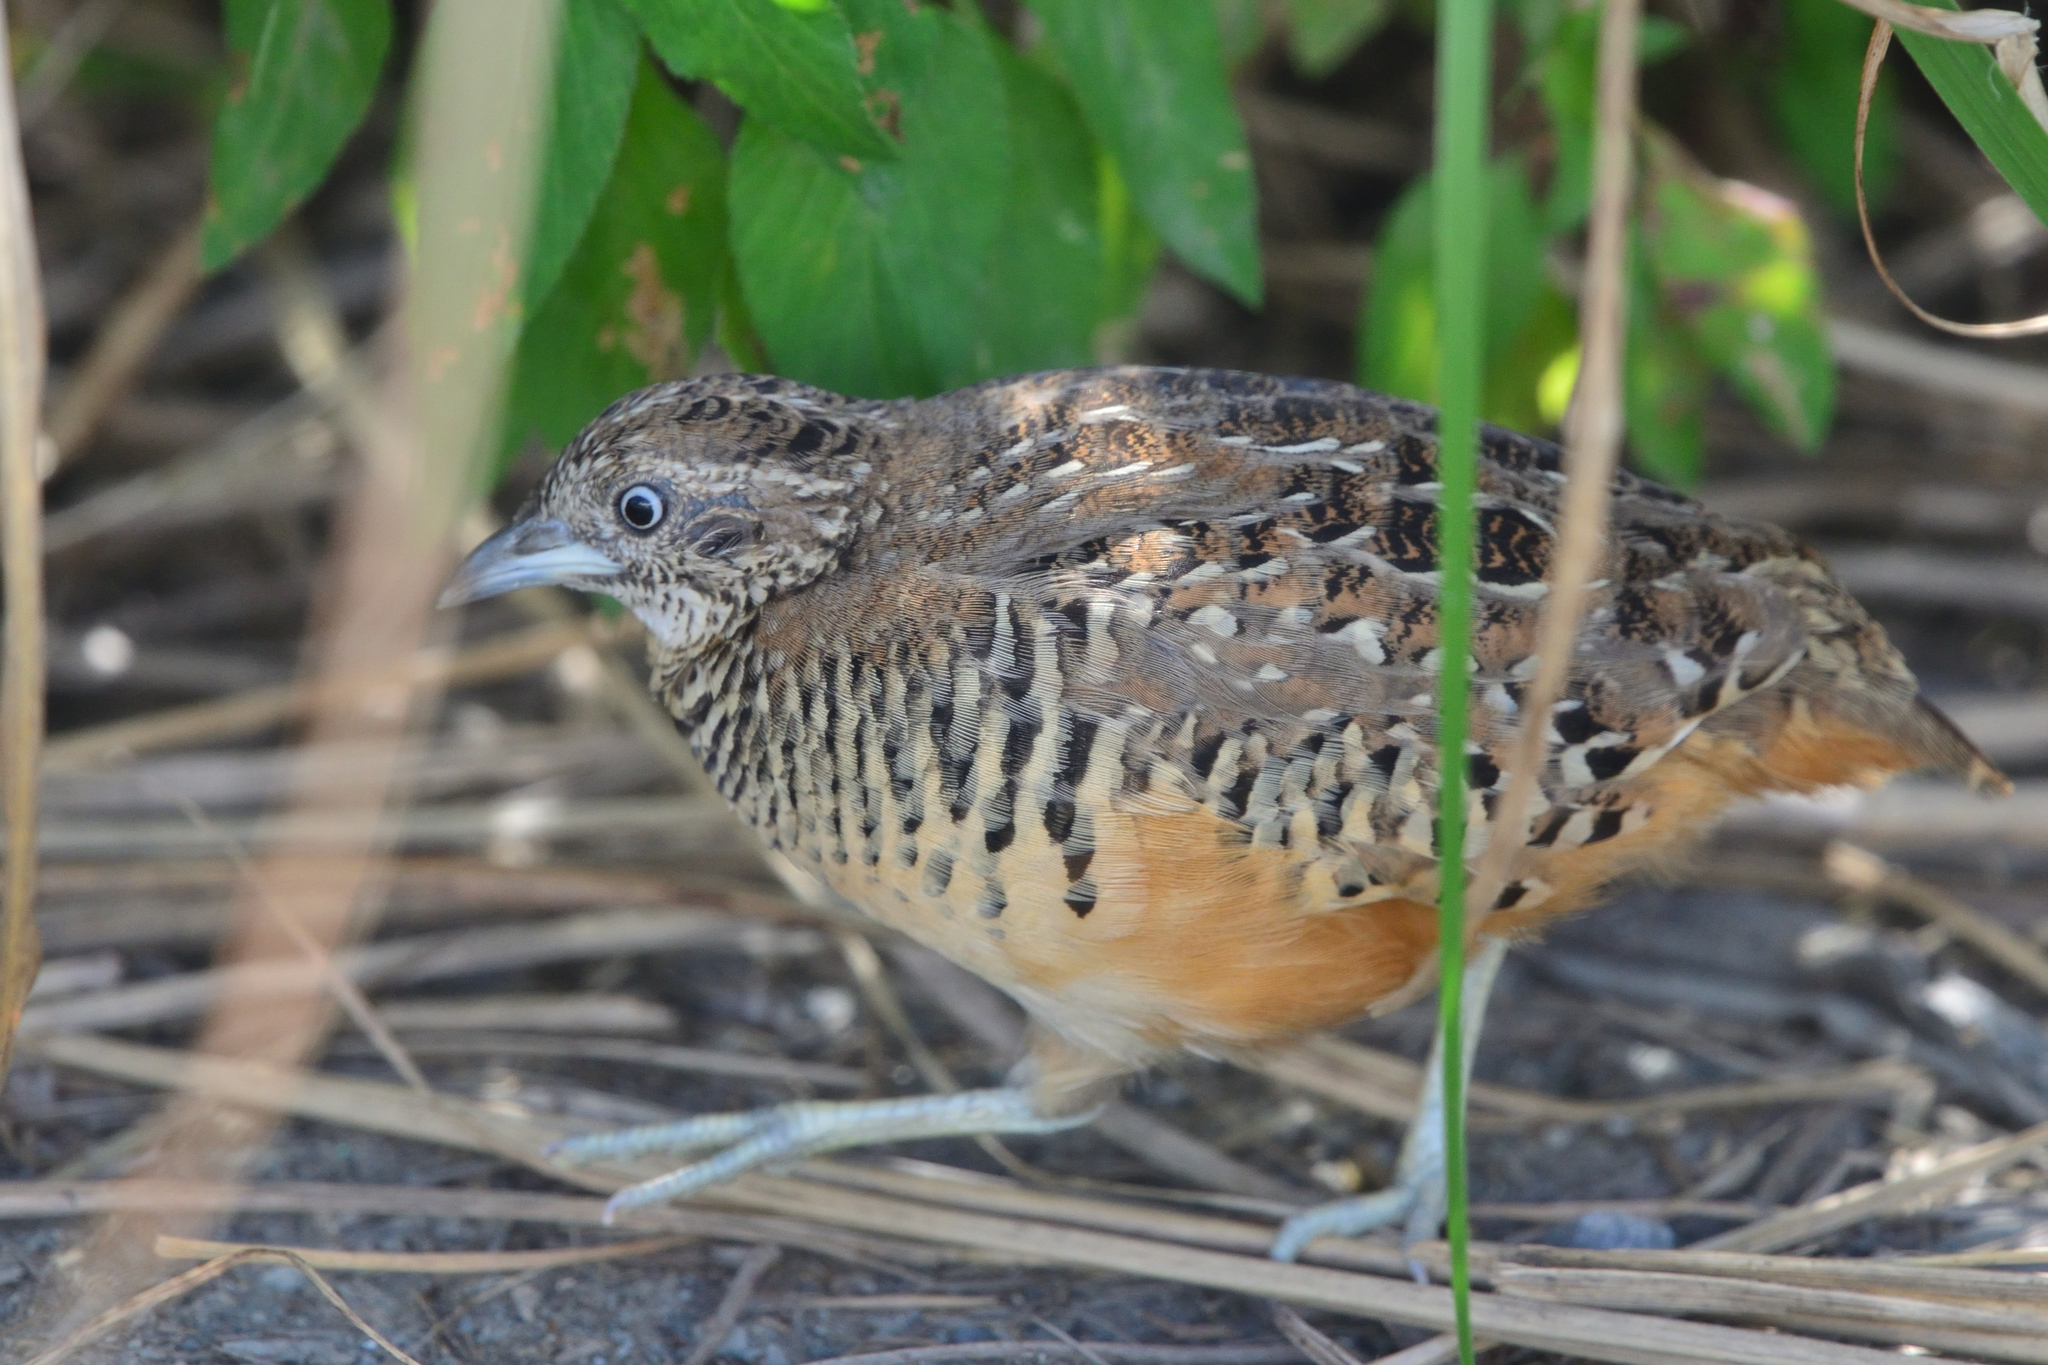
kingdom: Animalia
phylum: Chordata
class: Aves
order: Charadriiformes
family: Turnicidae
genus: Turnix
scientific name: Turnix suscitator
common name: Barred buttonquail
